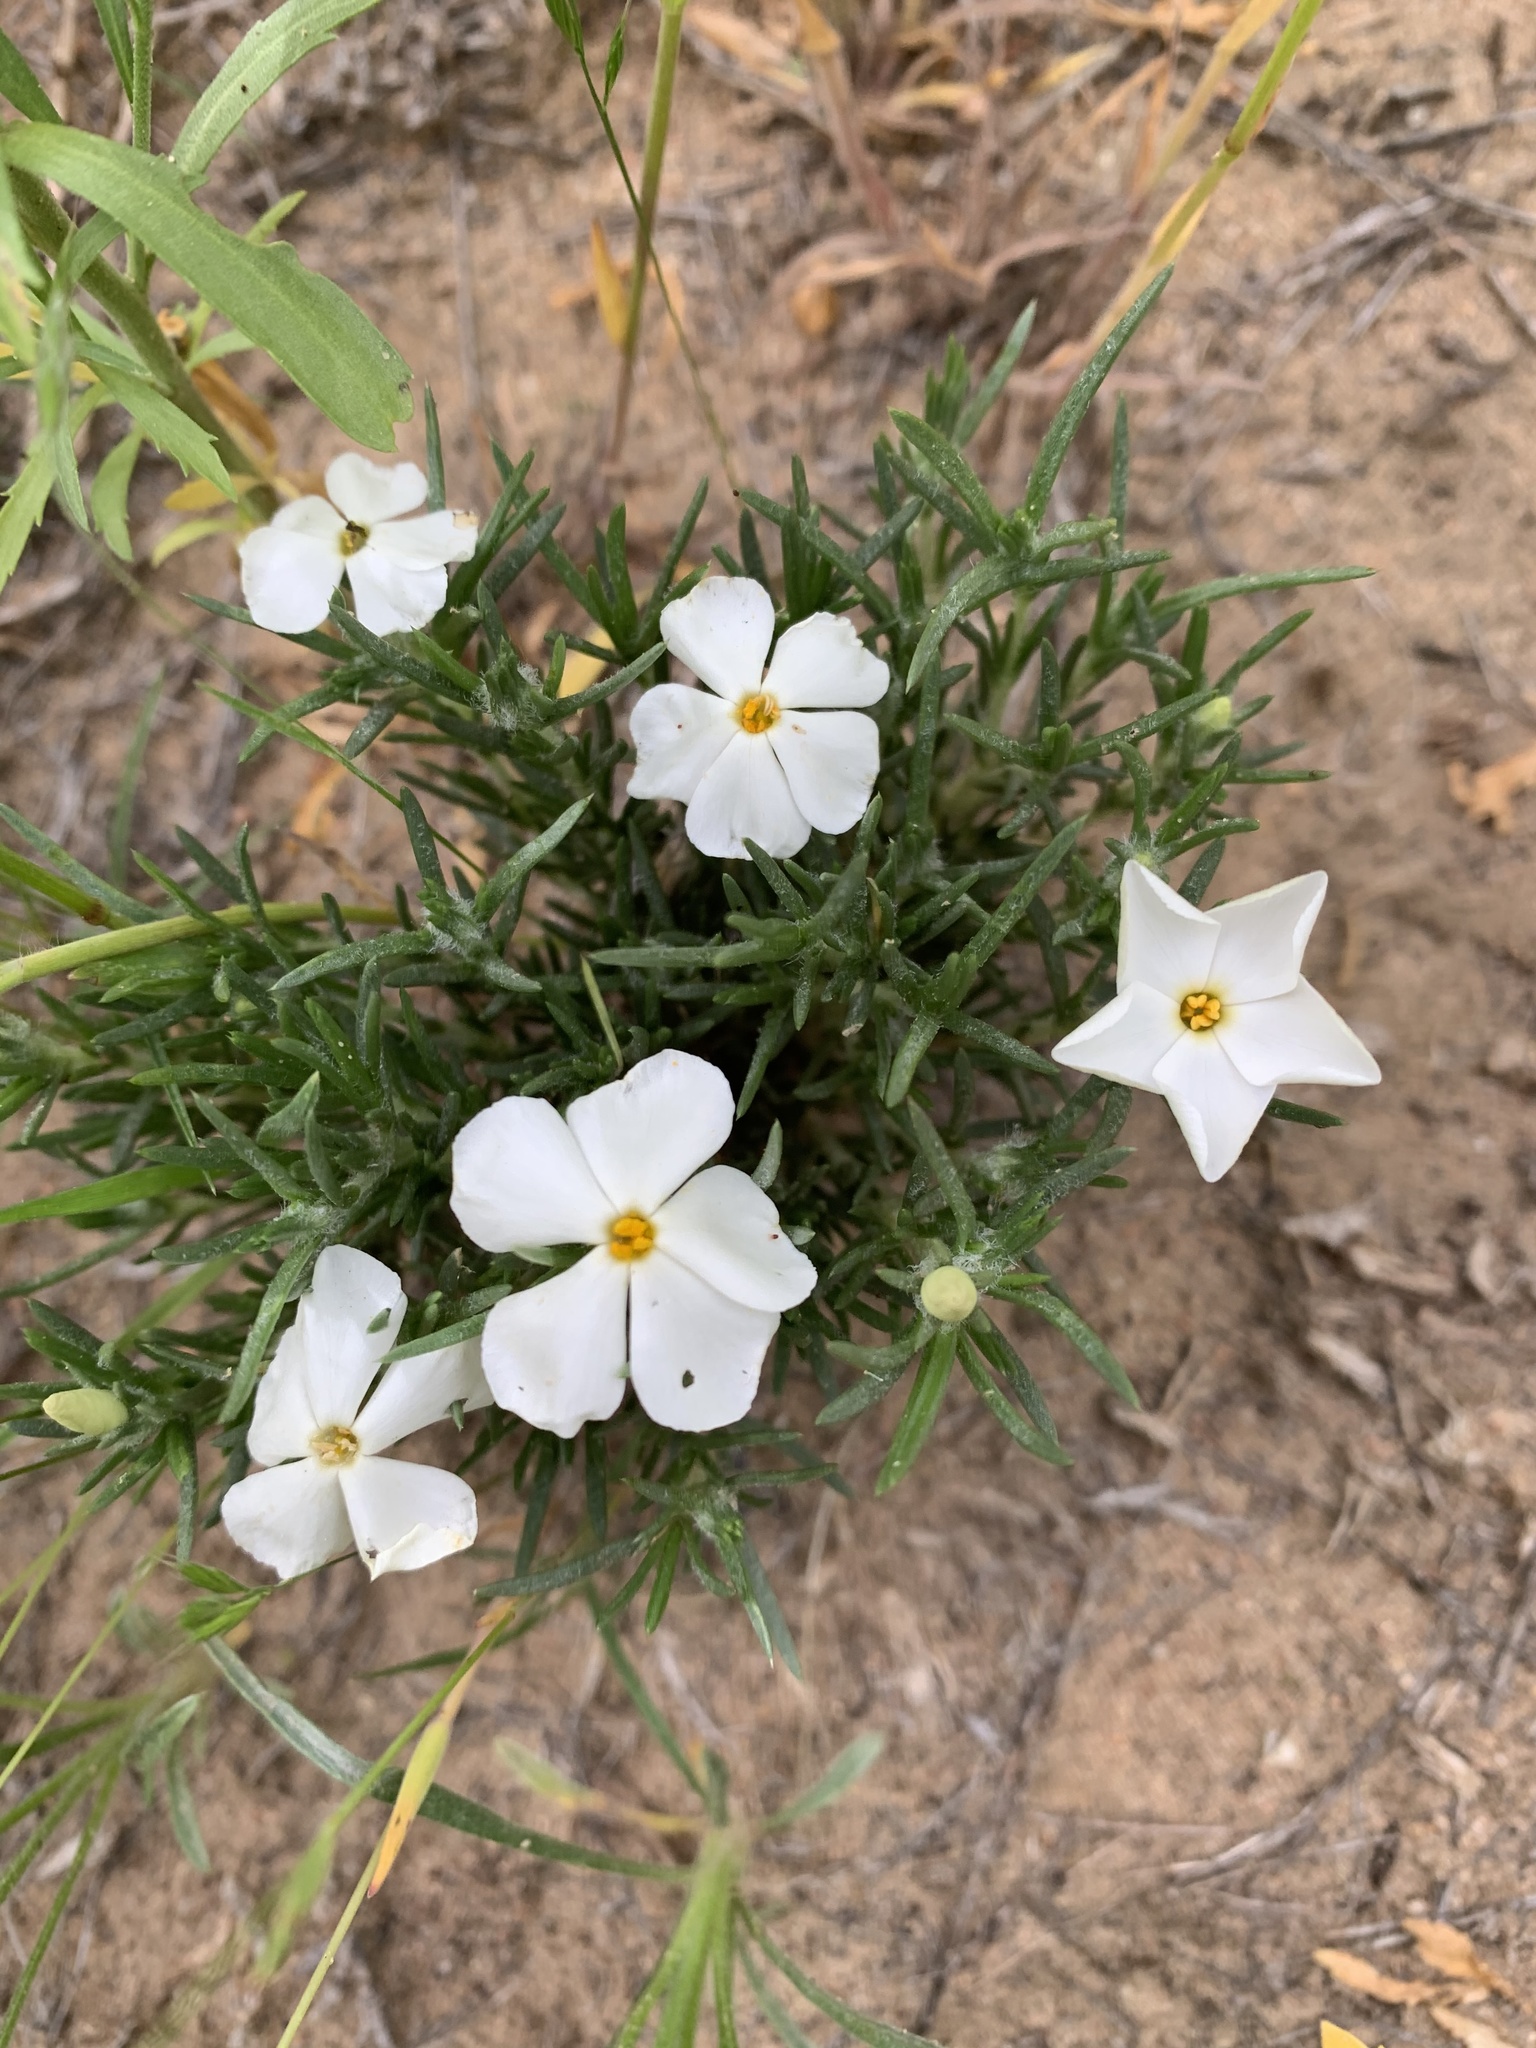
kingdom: Plantae
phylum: Tracheophyta
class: Magnoliopsida
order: Ericales
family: Polemoniaceae
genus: Phlox
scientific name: Phlox hoodii
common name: Moss phlox
